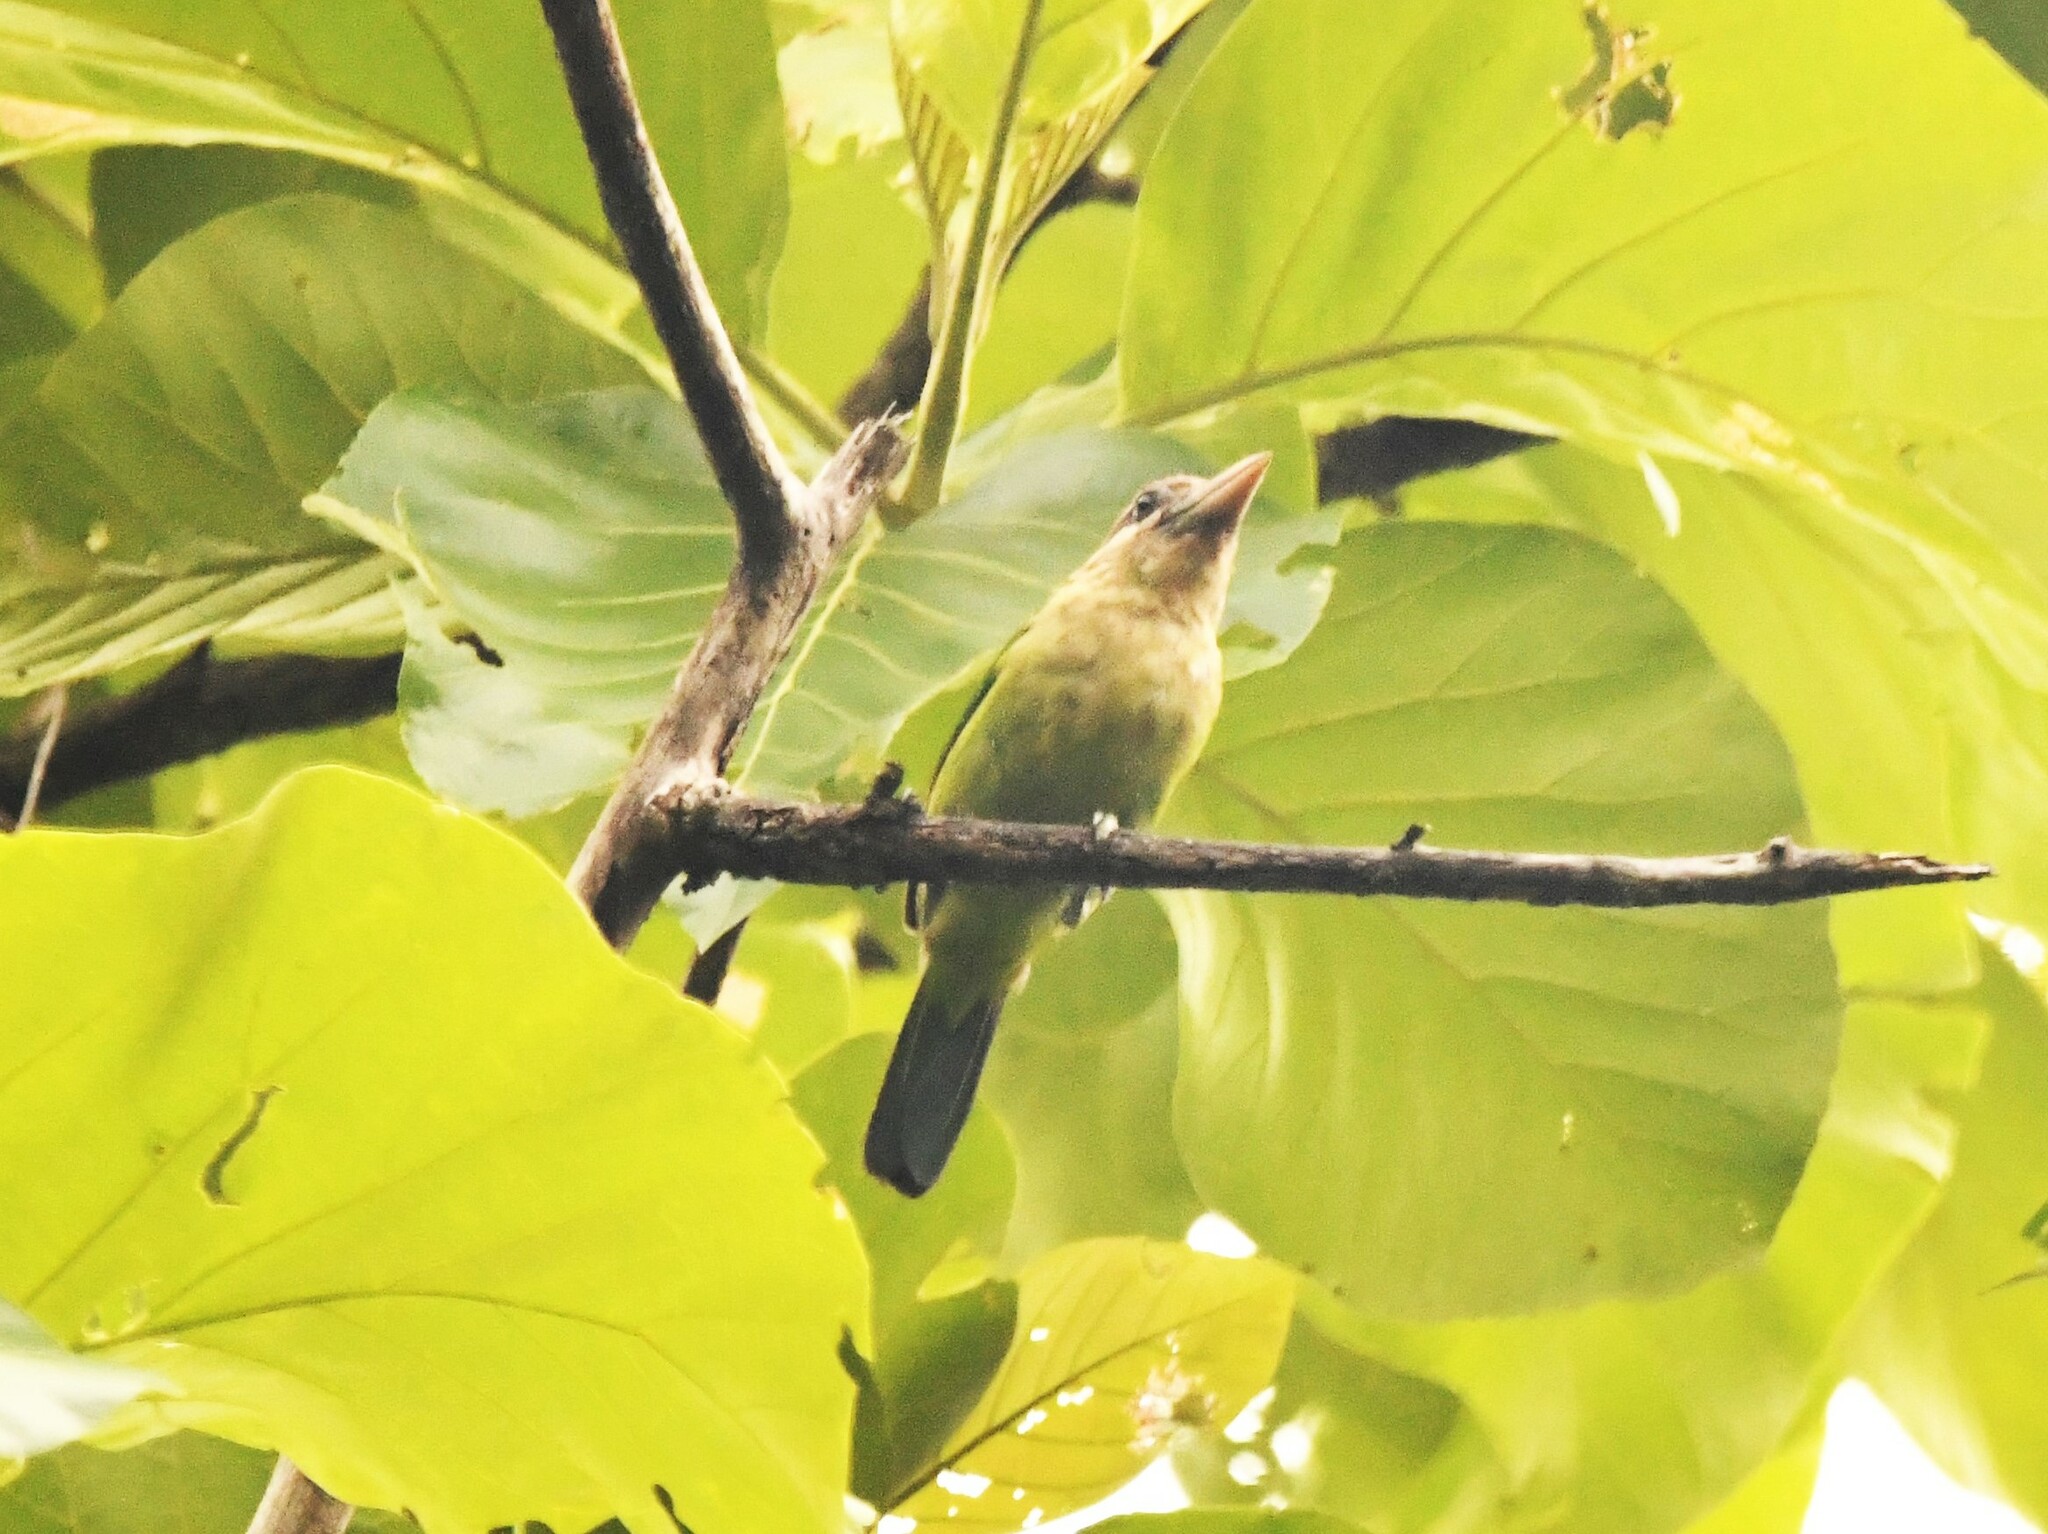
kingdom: Animalia
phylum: Chordata
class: Aves
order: Piciformes
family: Megalaimidae
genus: Psilopogon
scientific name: Psilopogon viridis
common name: White-cheeked barbet
